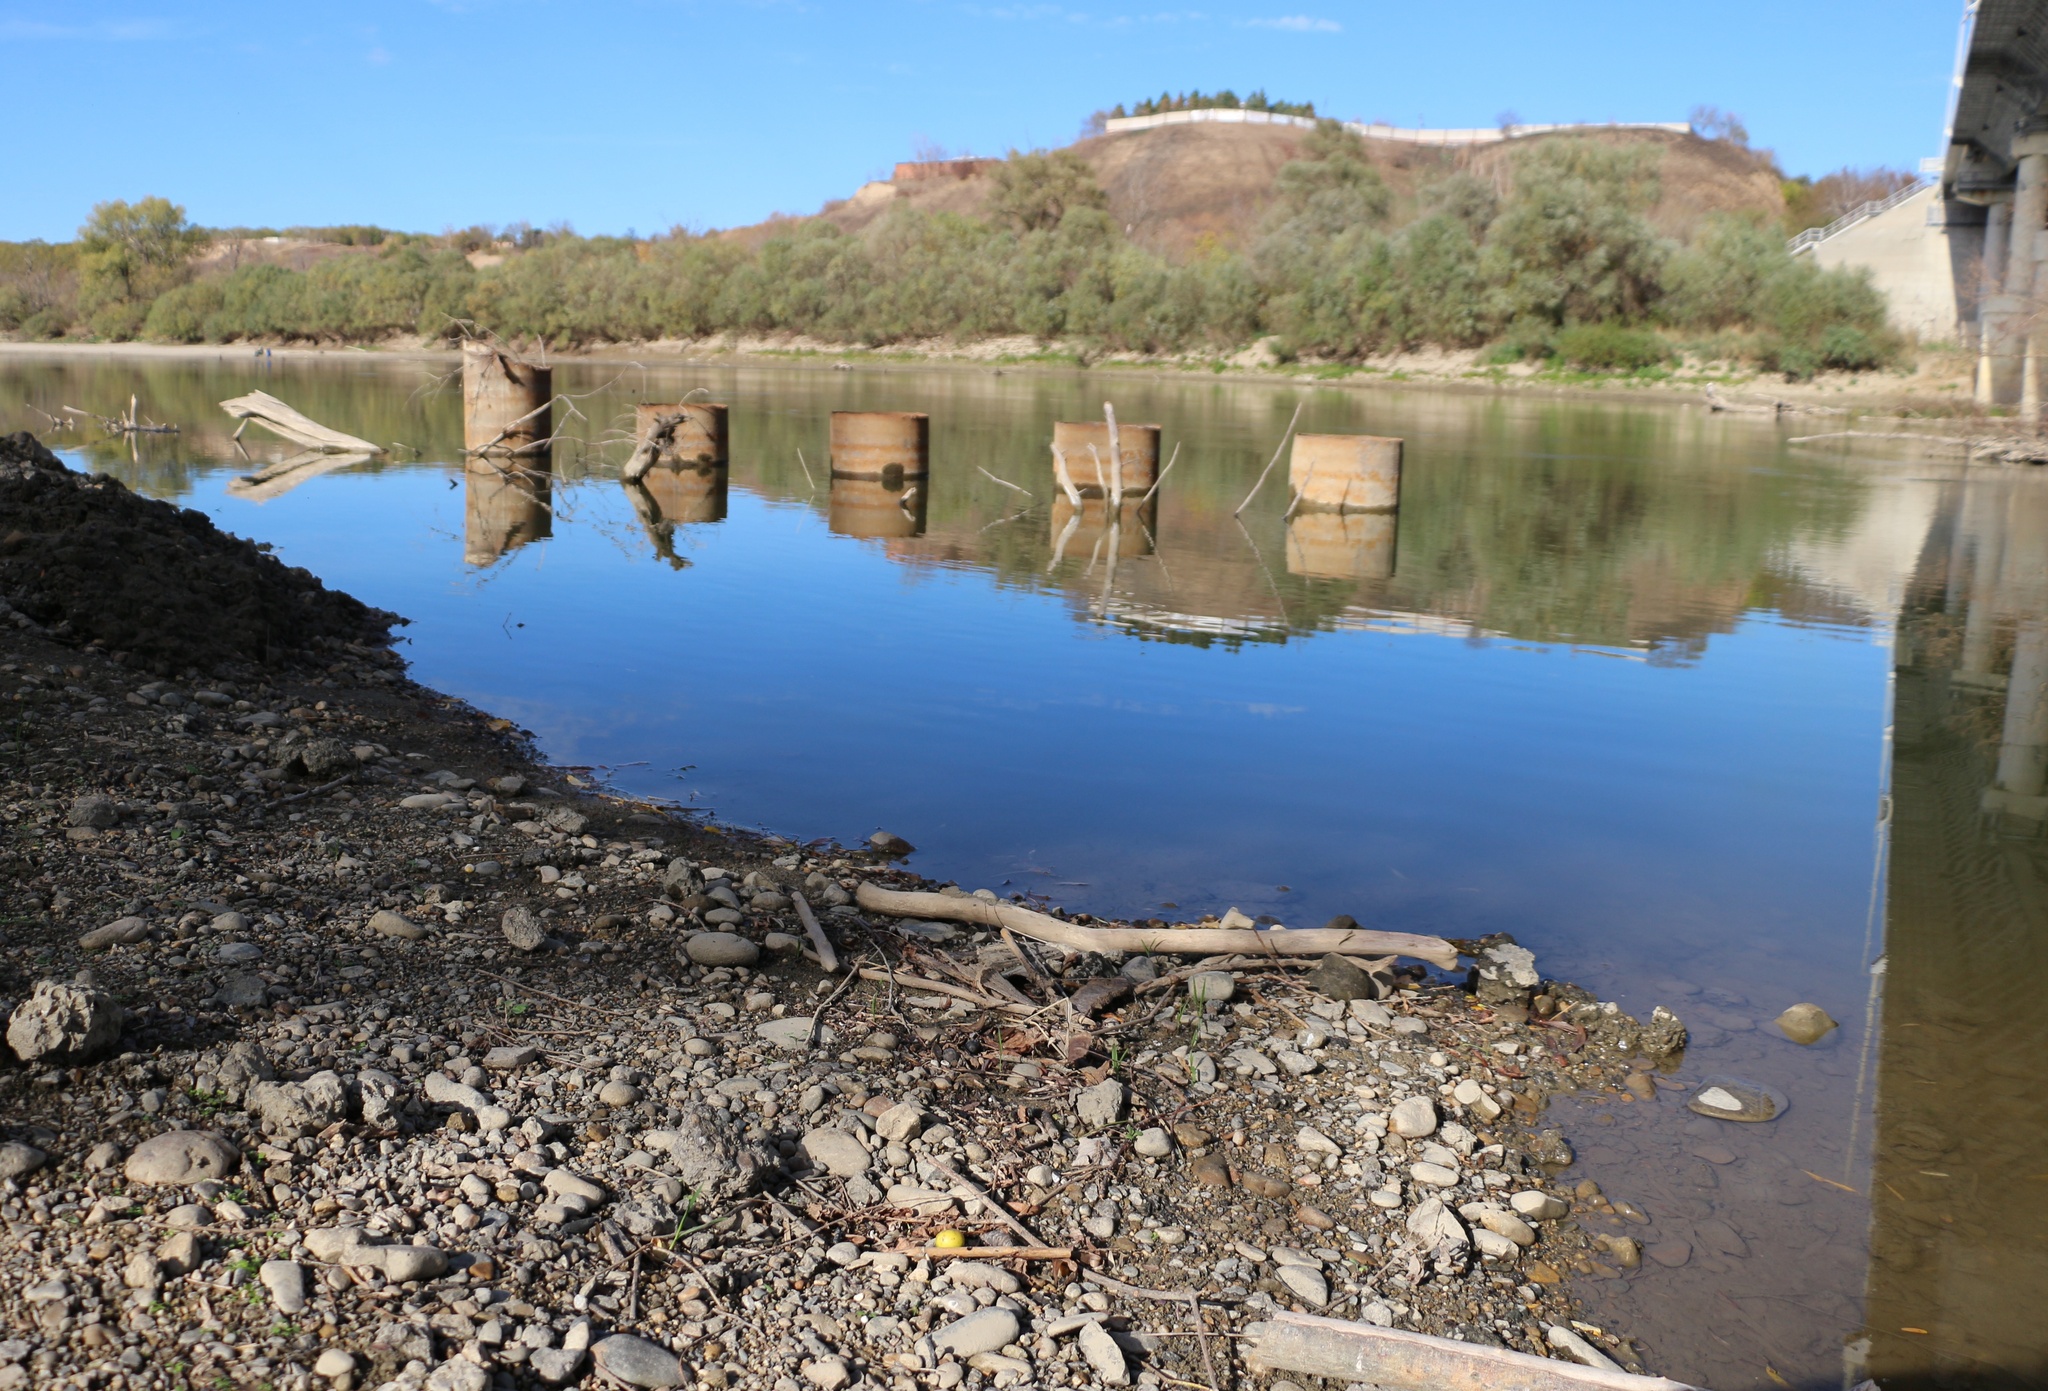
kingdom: Plantae
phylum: Tracheophyta
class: Magnoliopsida
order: Rosales
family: Rosaceae
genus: Malus
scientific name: Malus orientalis
